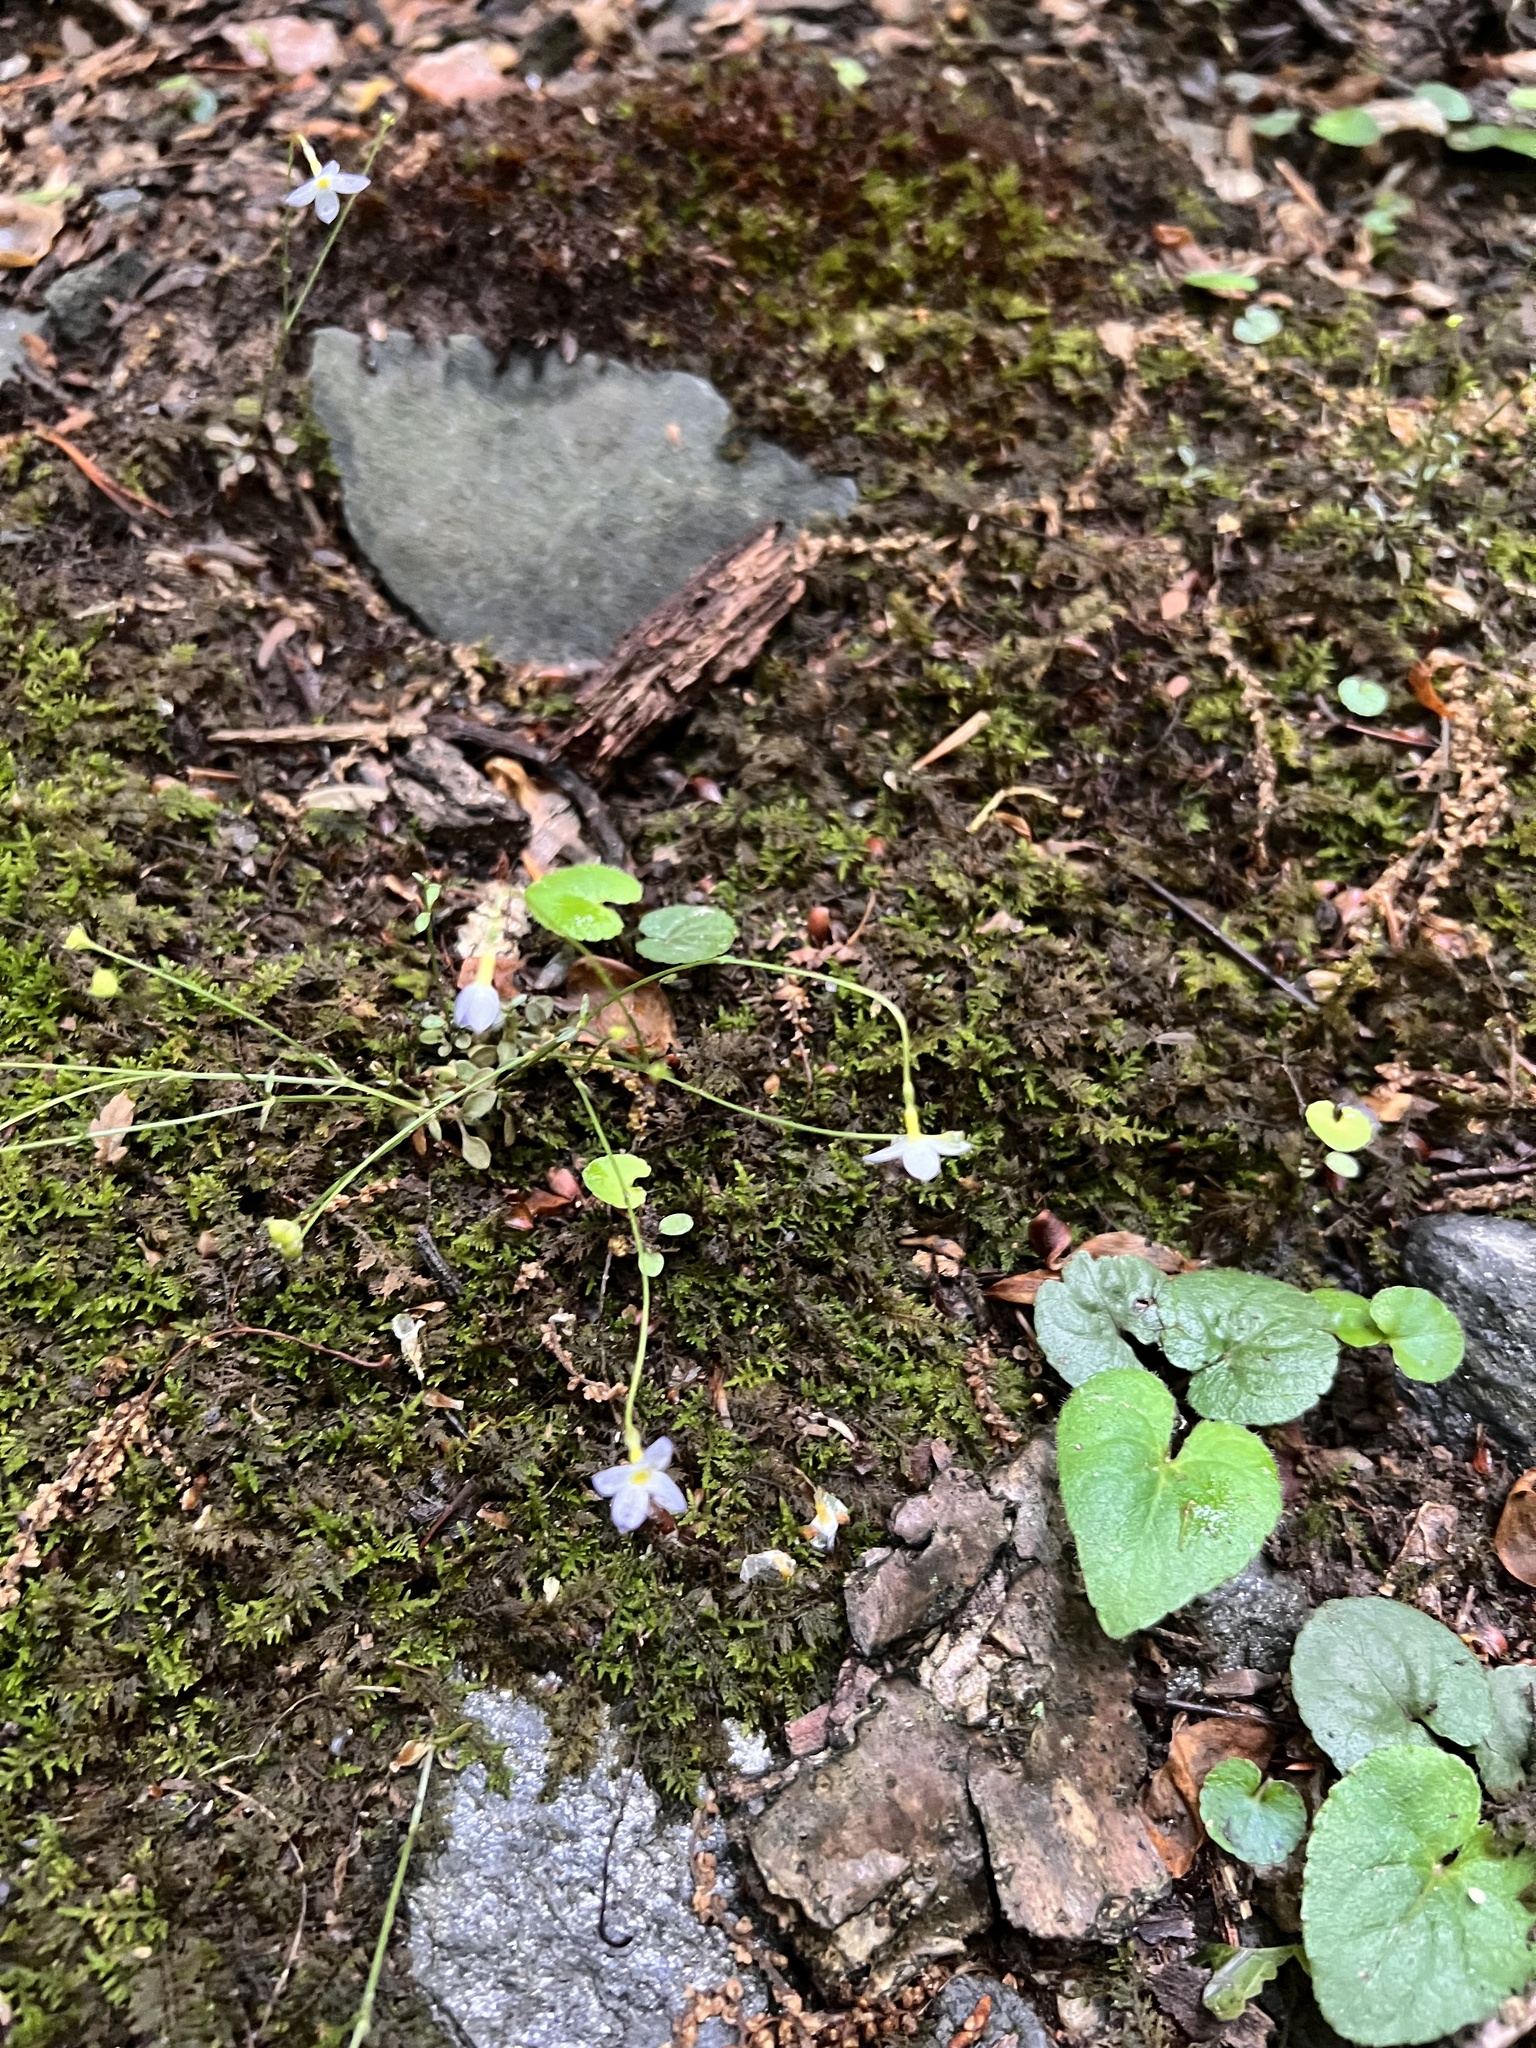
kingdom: Plantae
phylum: Tracheophyta
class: Magnoliopsida
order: Gentianales
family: Rubiaceae
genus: Houstonia
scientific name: Houstonia caerulea
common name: Bluets
